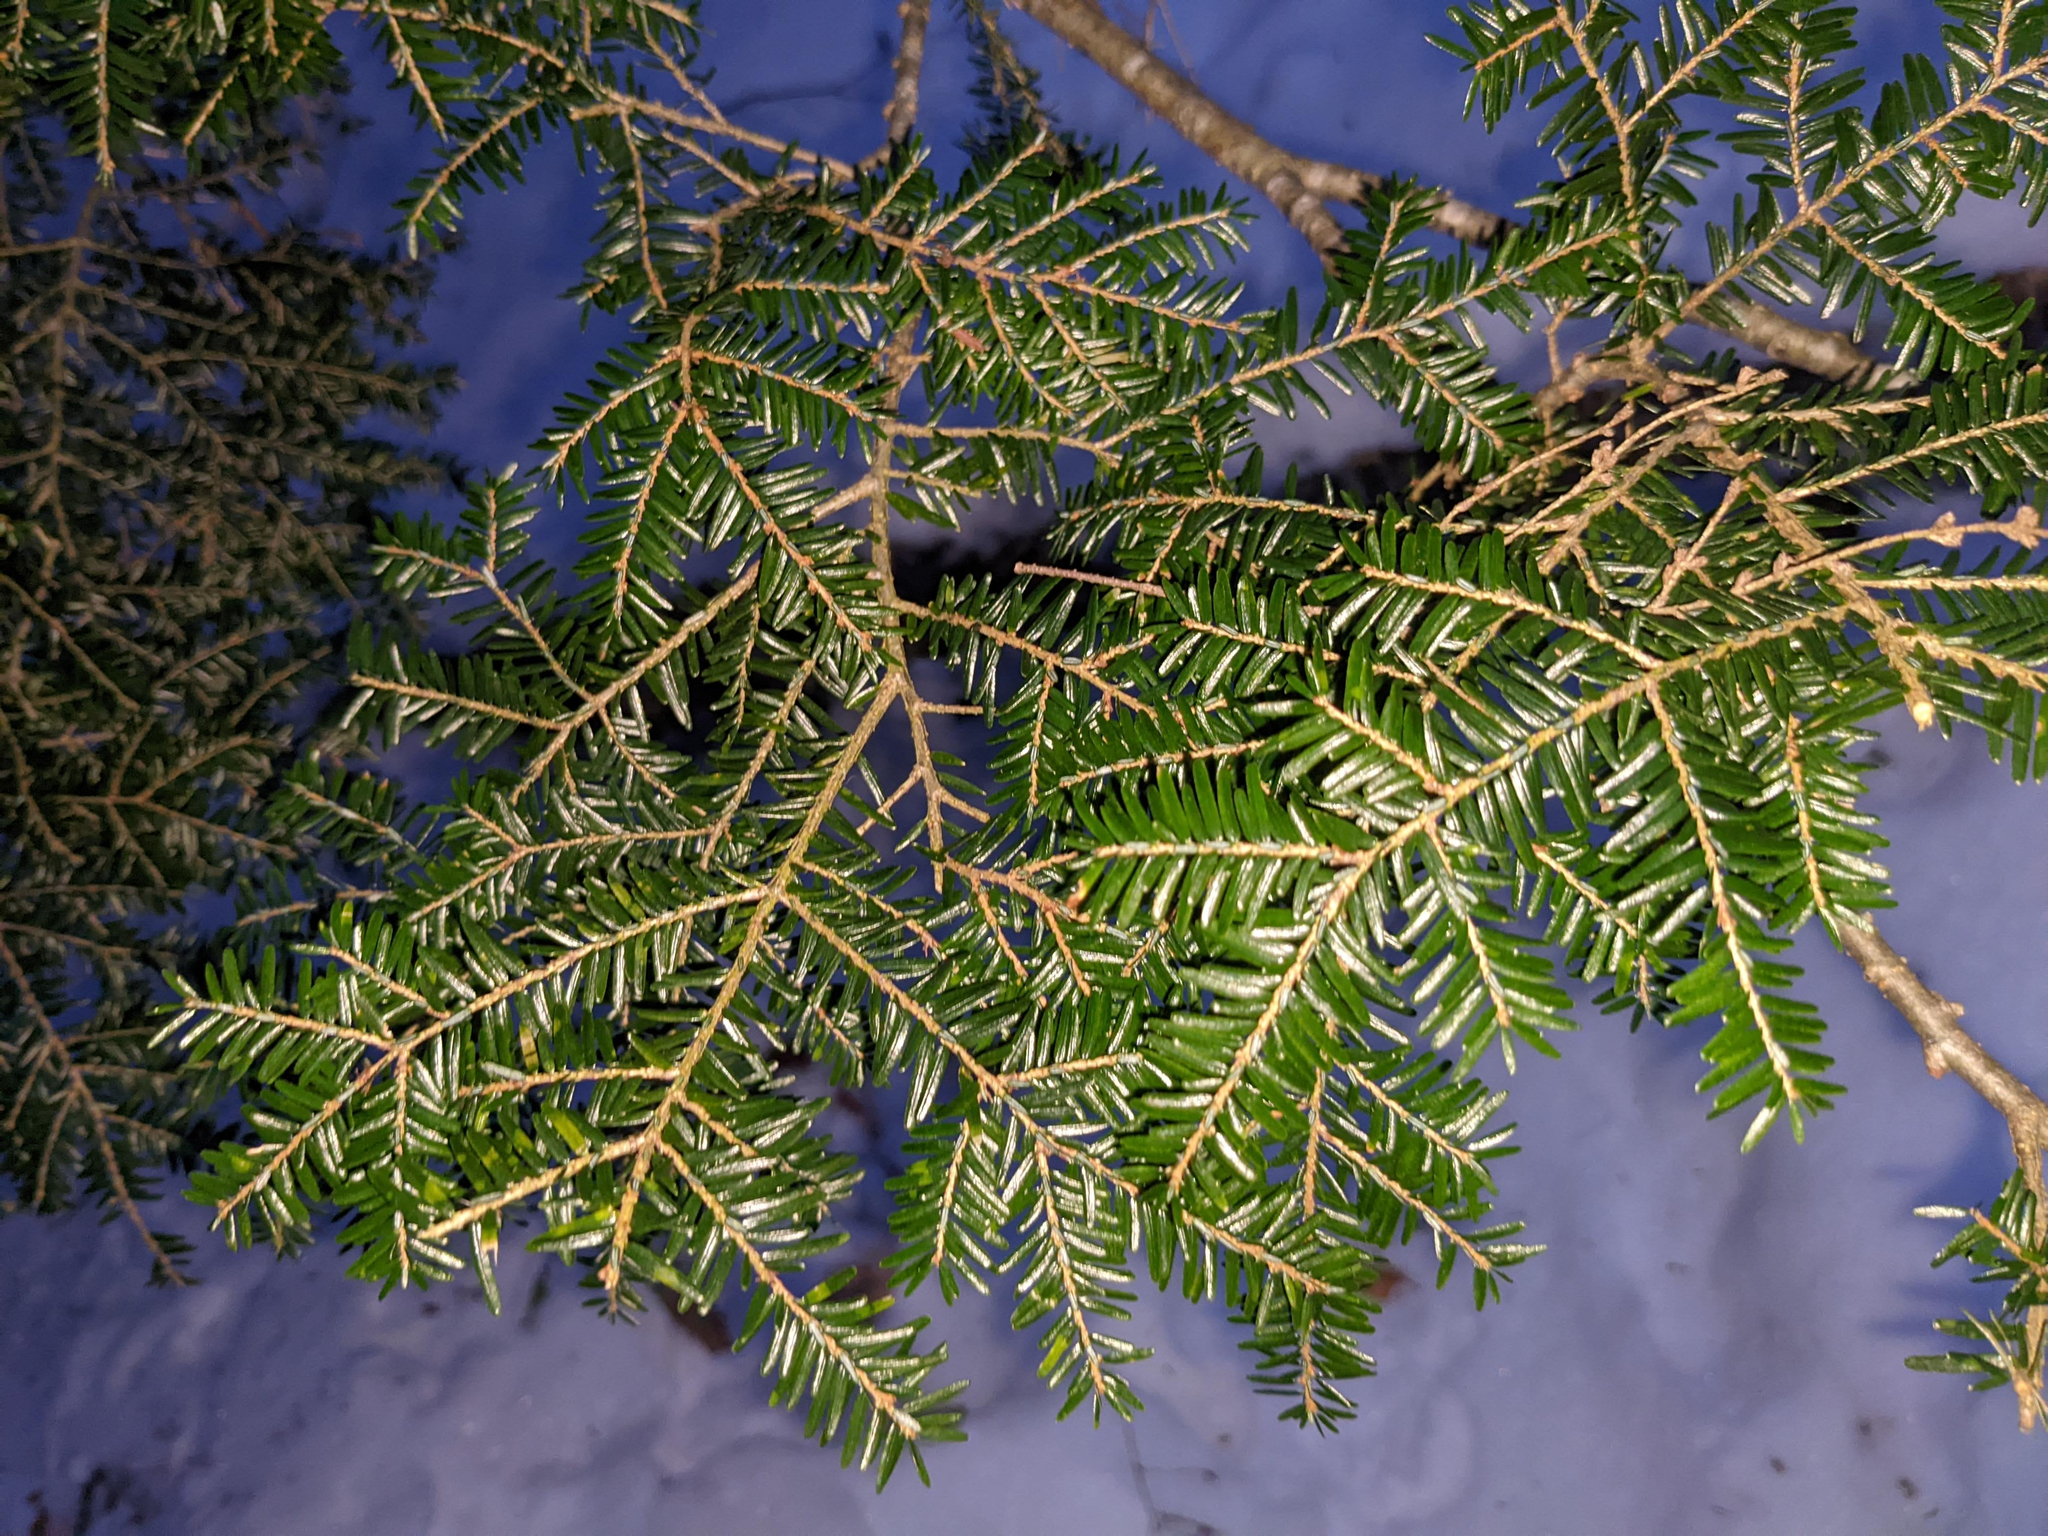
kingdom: Plantae
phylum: Tracheophyta
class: Pinopsida
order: Pinales
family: Pinaceae
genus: Tsuga
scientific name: Tsuga canadensis
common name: Eastern hemlock
